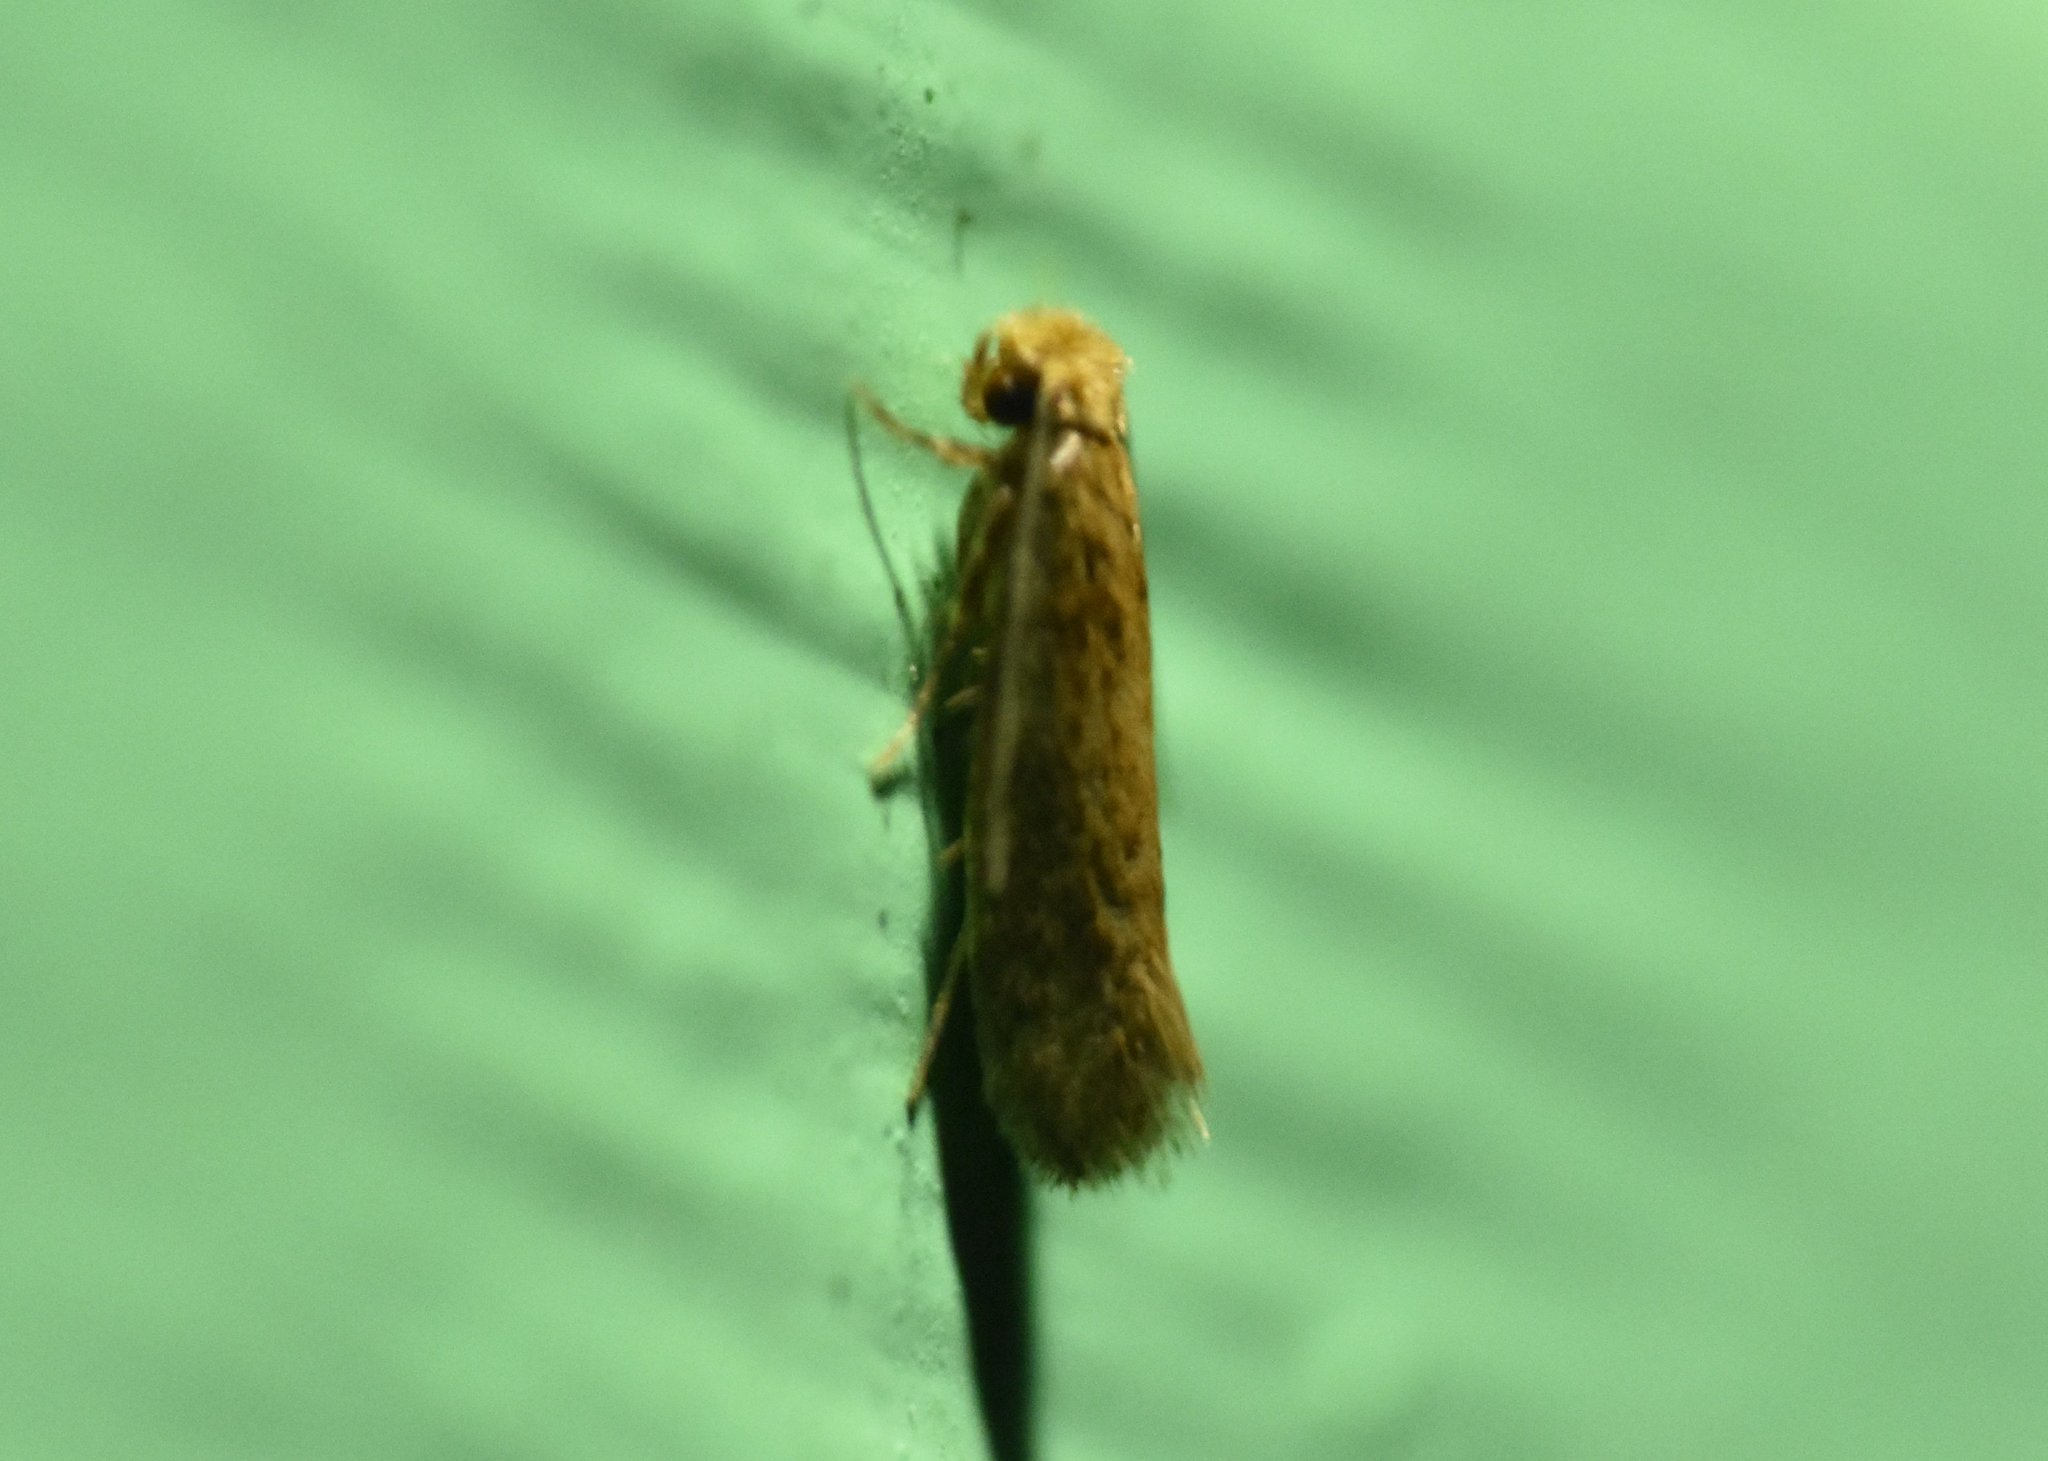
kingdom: Animalia
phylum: Arthropoda
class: Insecta
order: Lepidoptera
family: Meessiidae
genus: Homostinea
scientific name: Homostinea curviliniella
